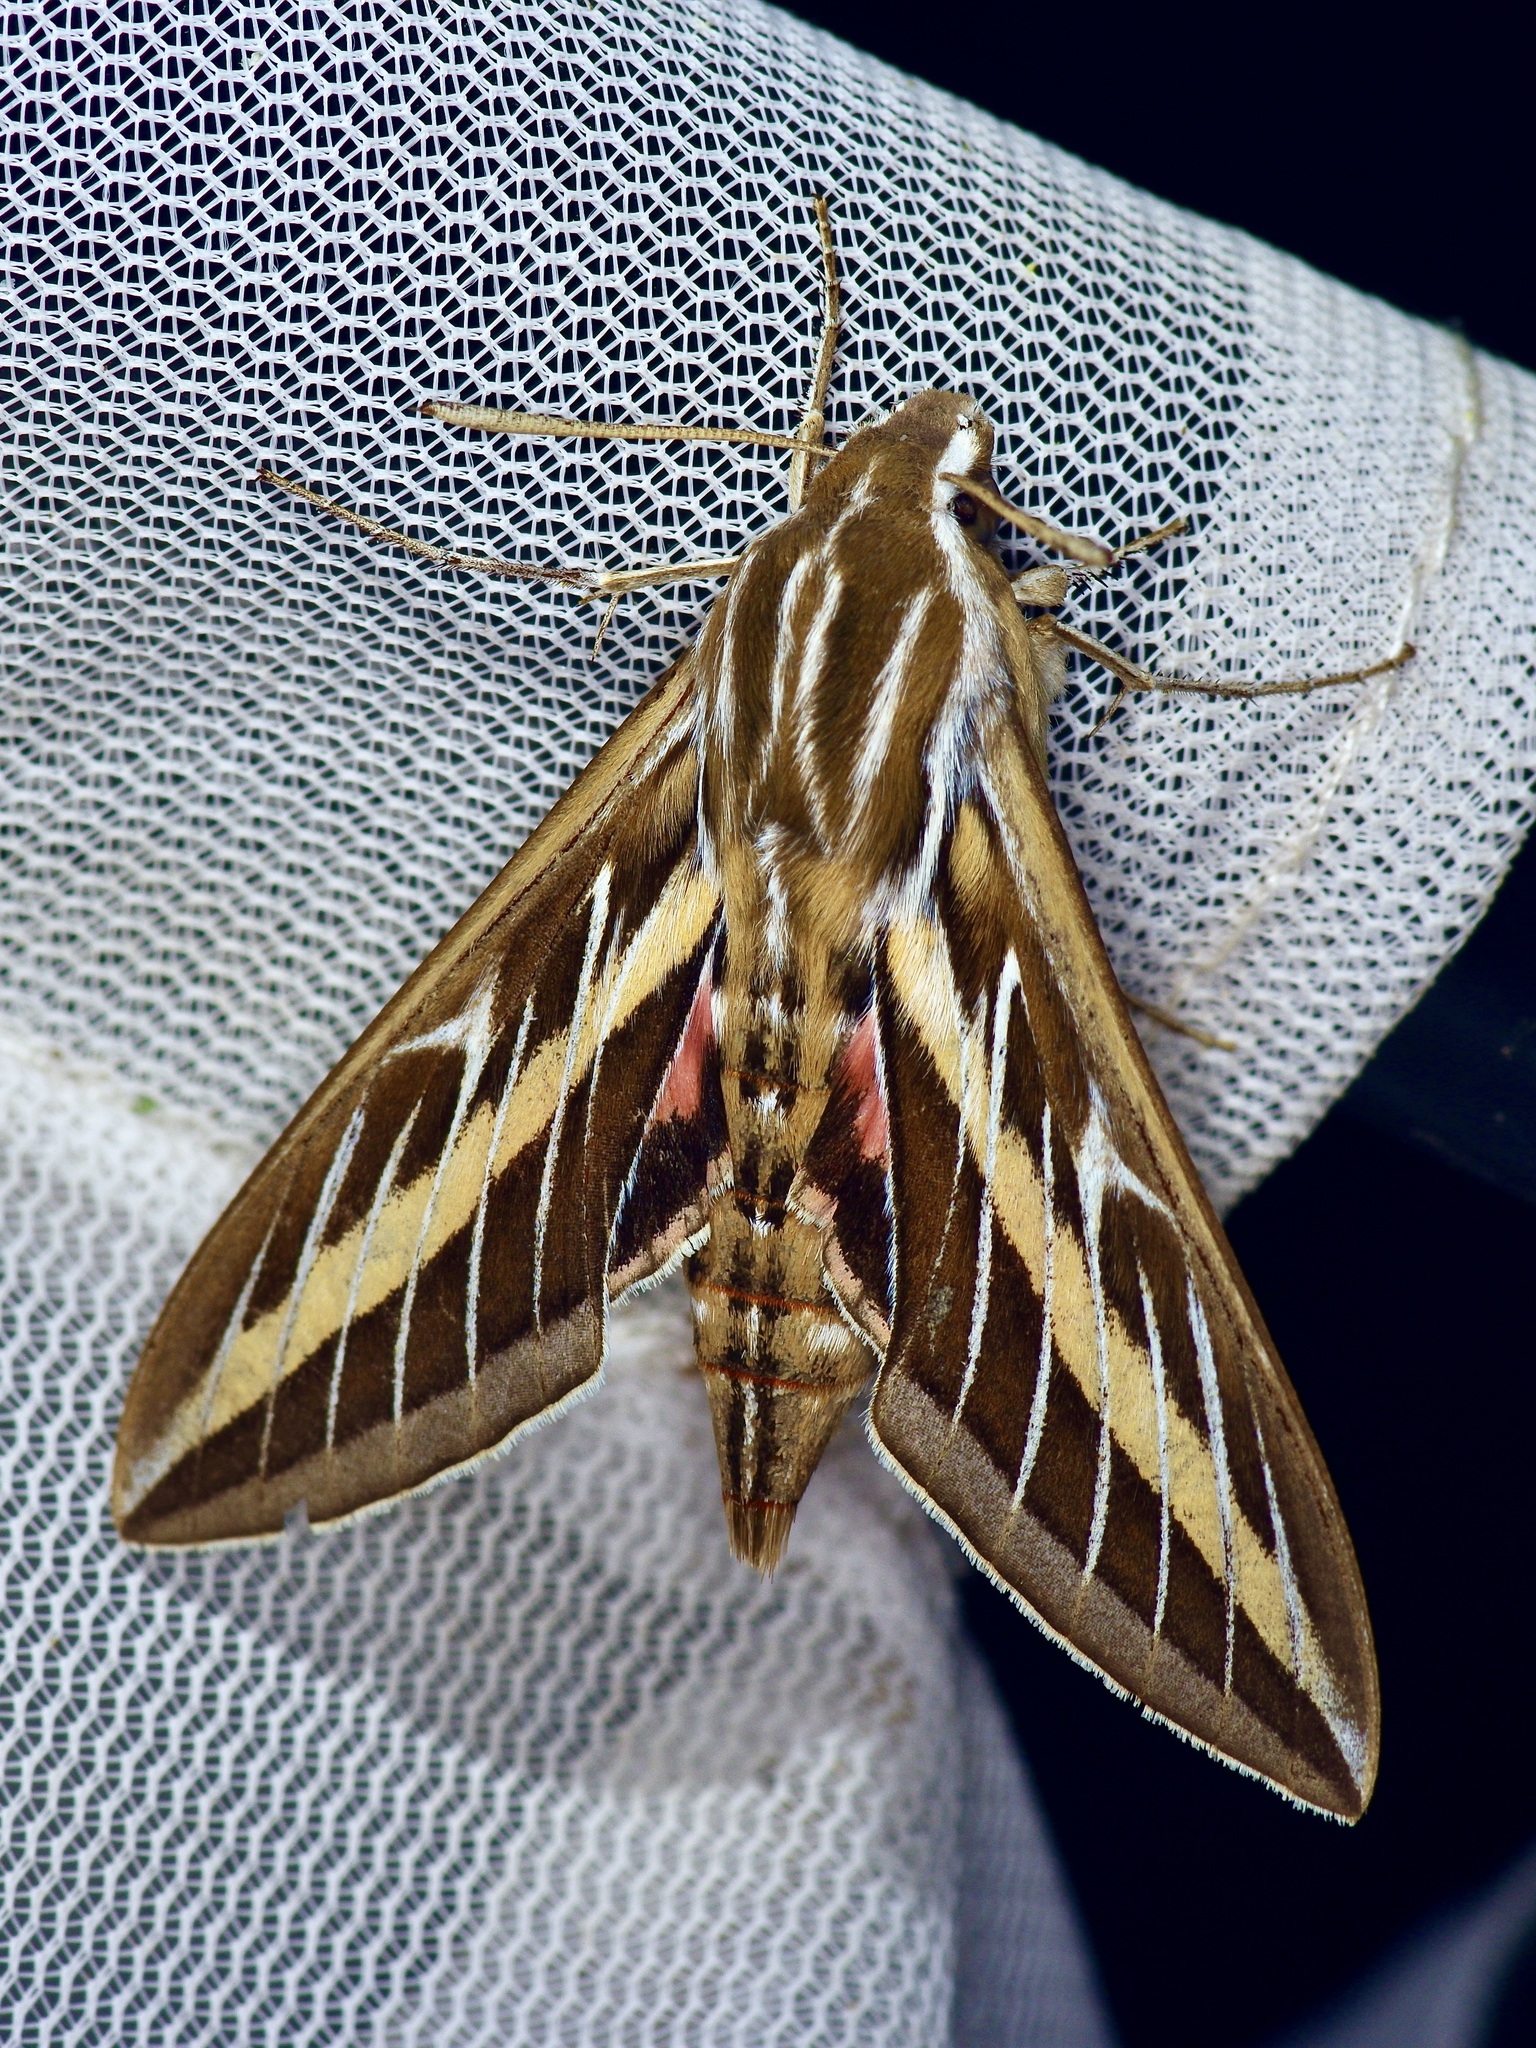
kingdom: Animalia
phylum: Arthropoda
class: Insecta
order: Lepidoptera
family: Sphingidae
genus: Hyles
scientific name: Hyles lineata
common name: White-lined sphinx
